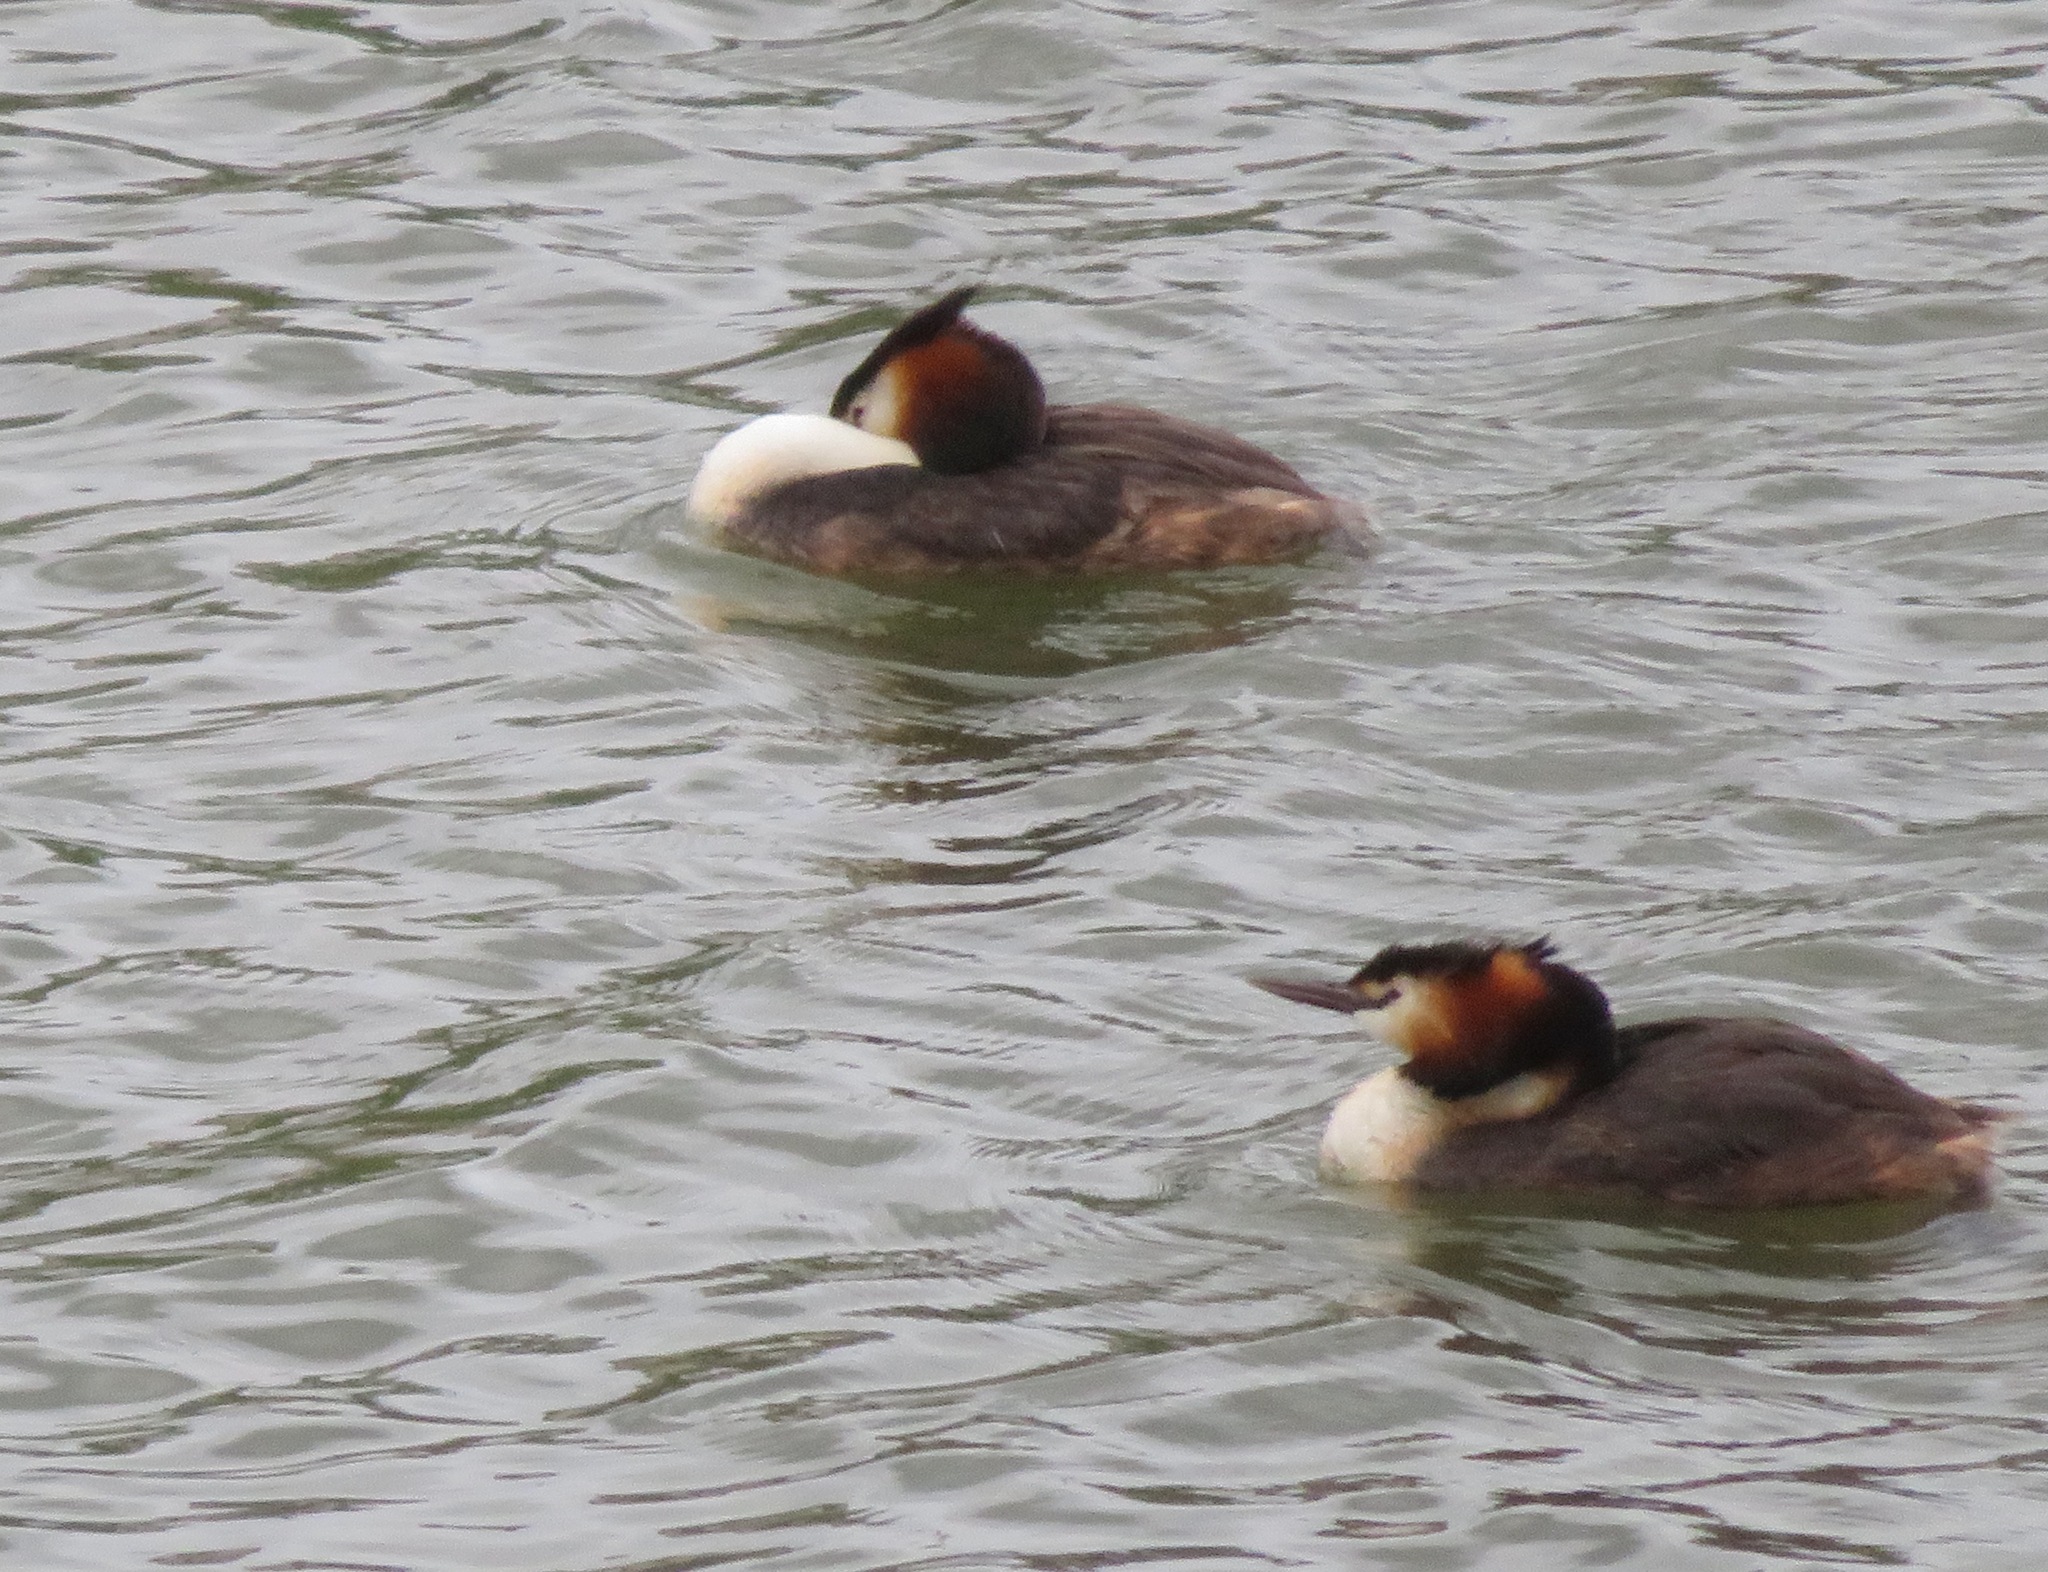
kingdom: Animalia
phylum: Chordata
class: Aves
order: Podicipediformes
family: Podicipedidae
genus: Podiceps
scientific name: Podiceps cristatus
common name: Great crested grebe
